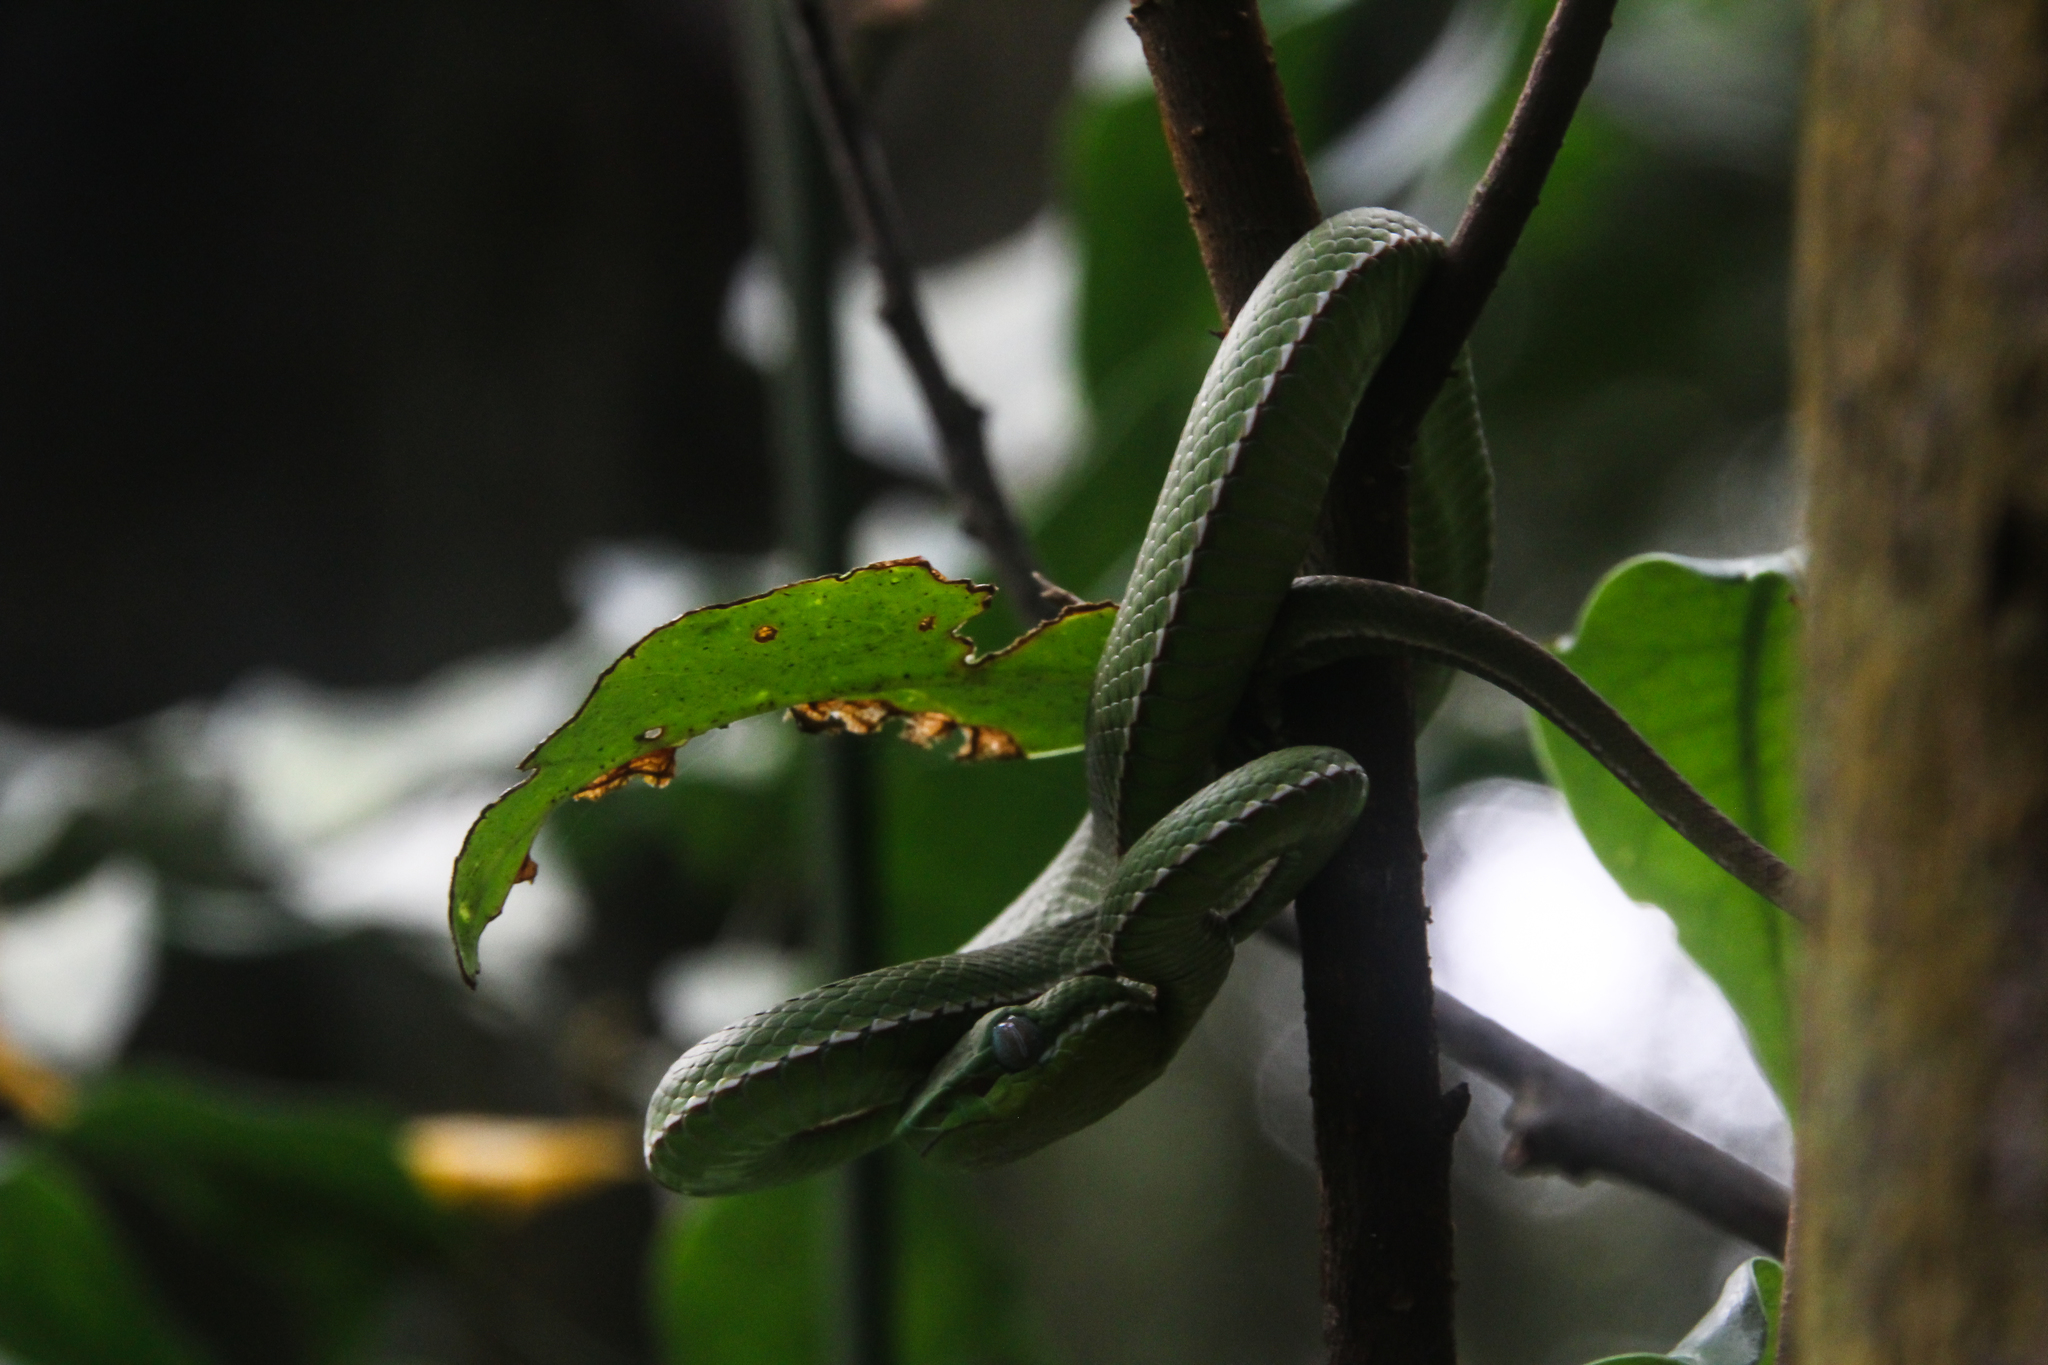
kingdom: Animalia
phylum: Chordata
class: Squamata
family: Viperidae
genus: Trimeresurus
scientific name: Trimeresurus stejnegeri
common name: Chen’s bamboo pit viper
